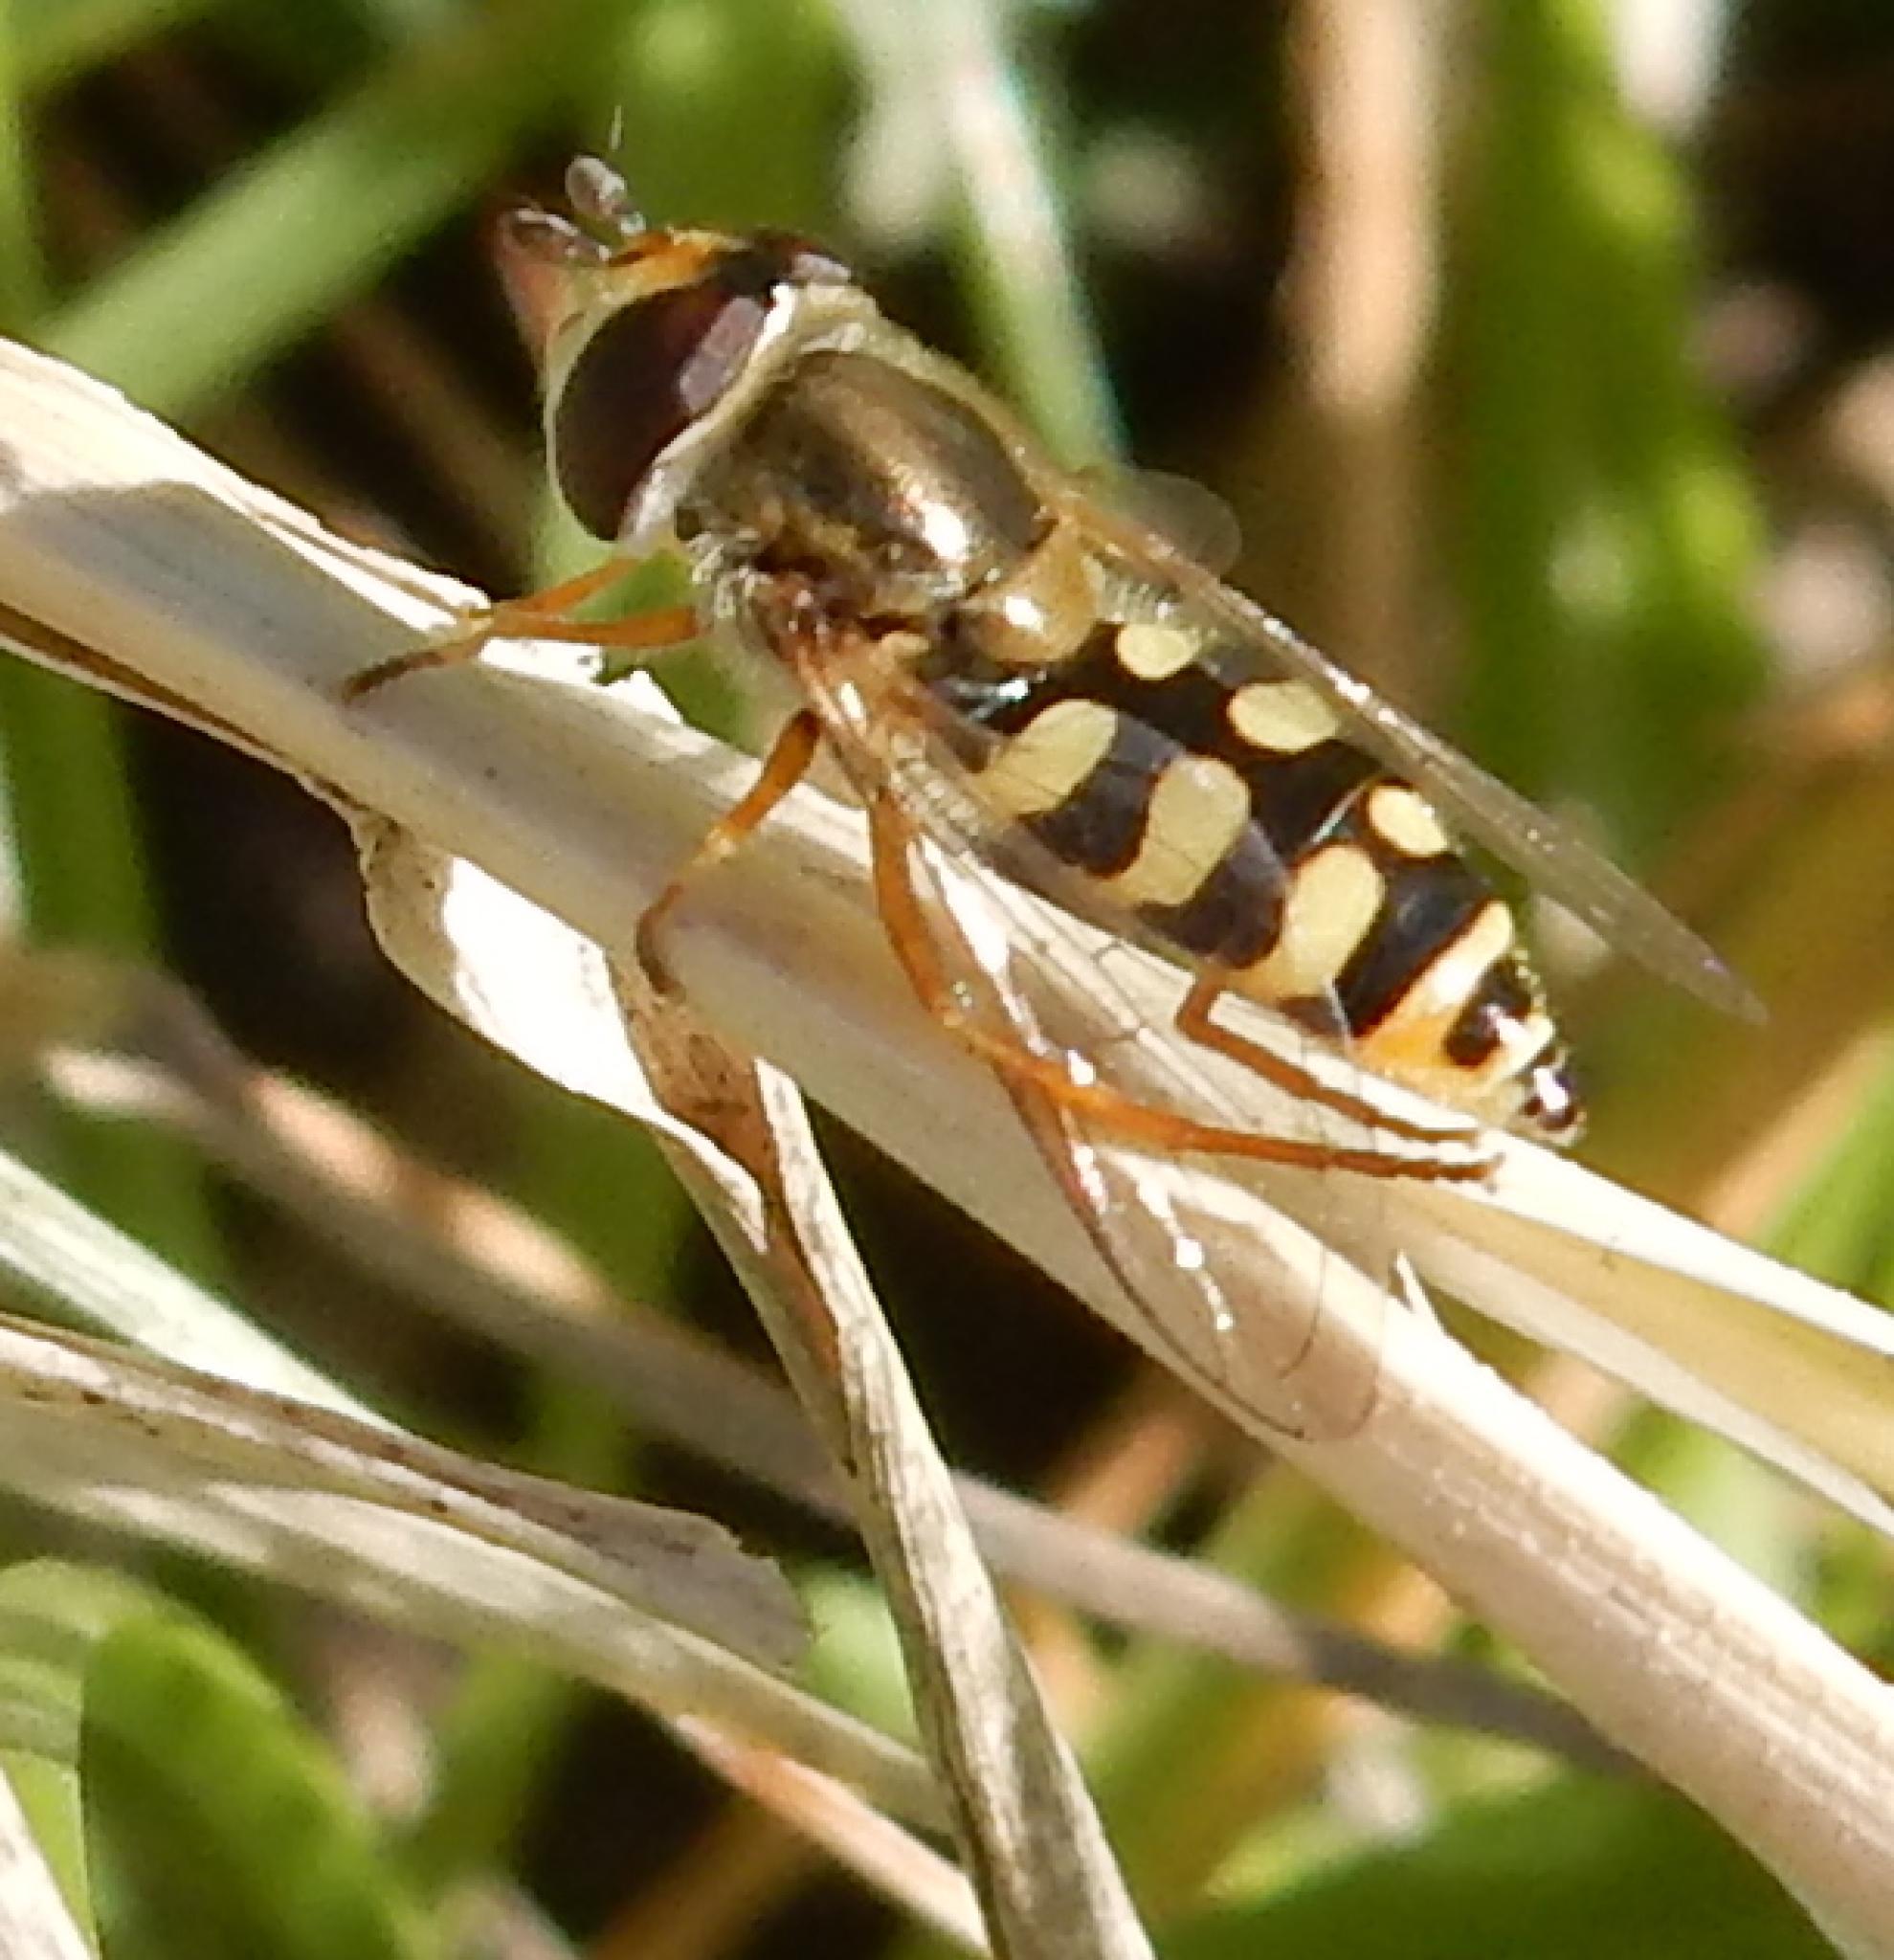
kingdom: Animalia
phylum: Arthropoda
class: Insecta
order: Diptera
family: Syrphidae
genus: Eupeodes
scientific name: Eupeodes corollae
